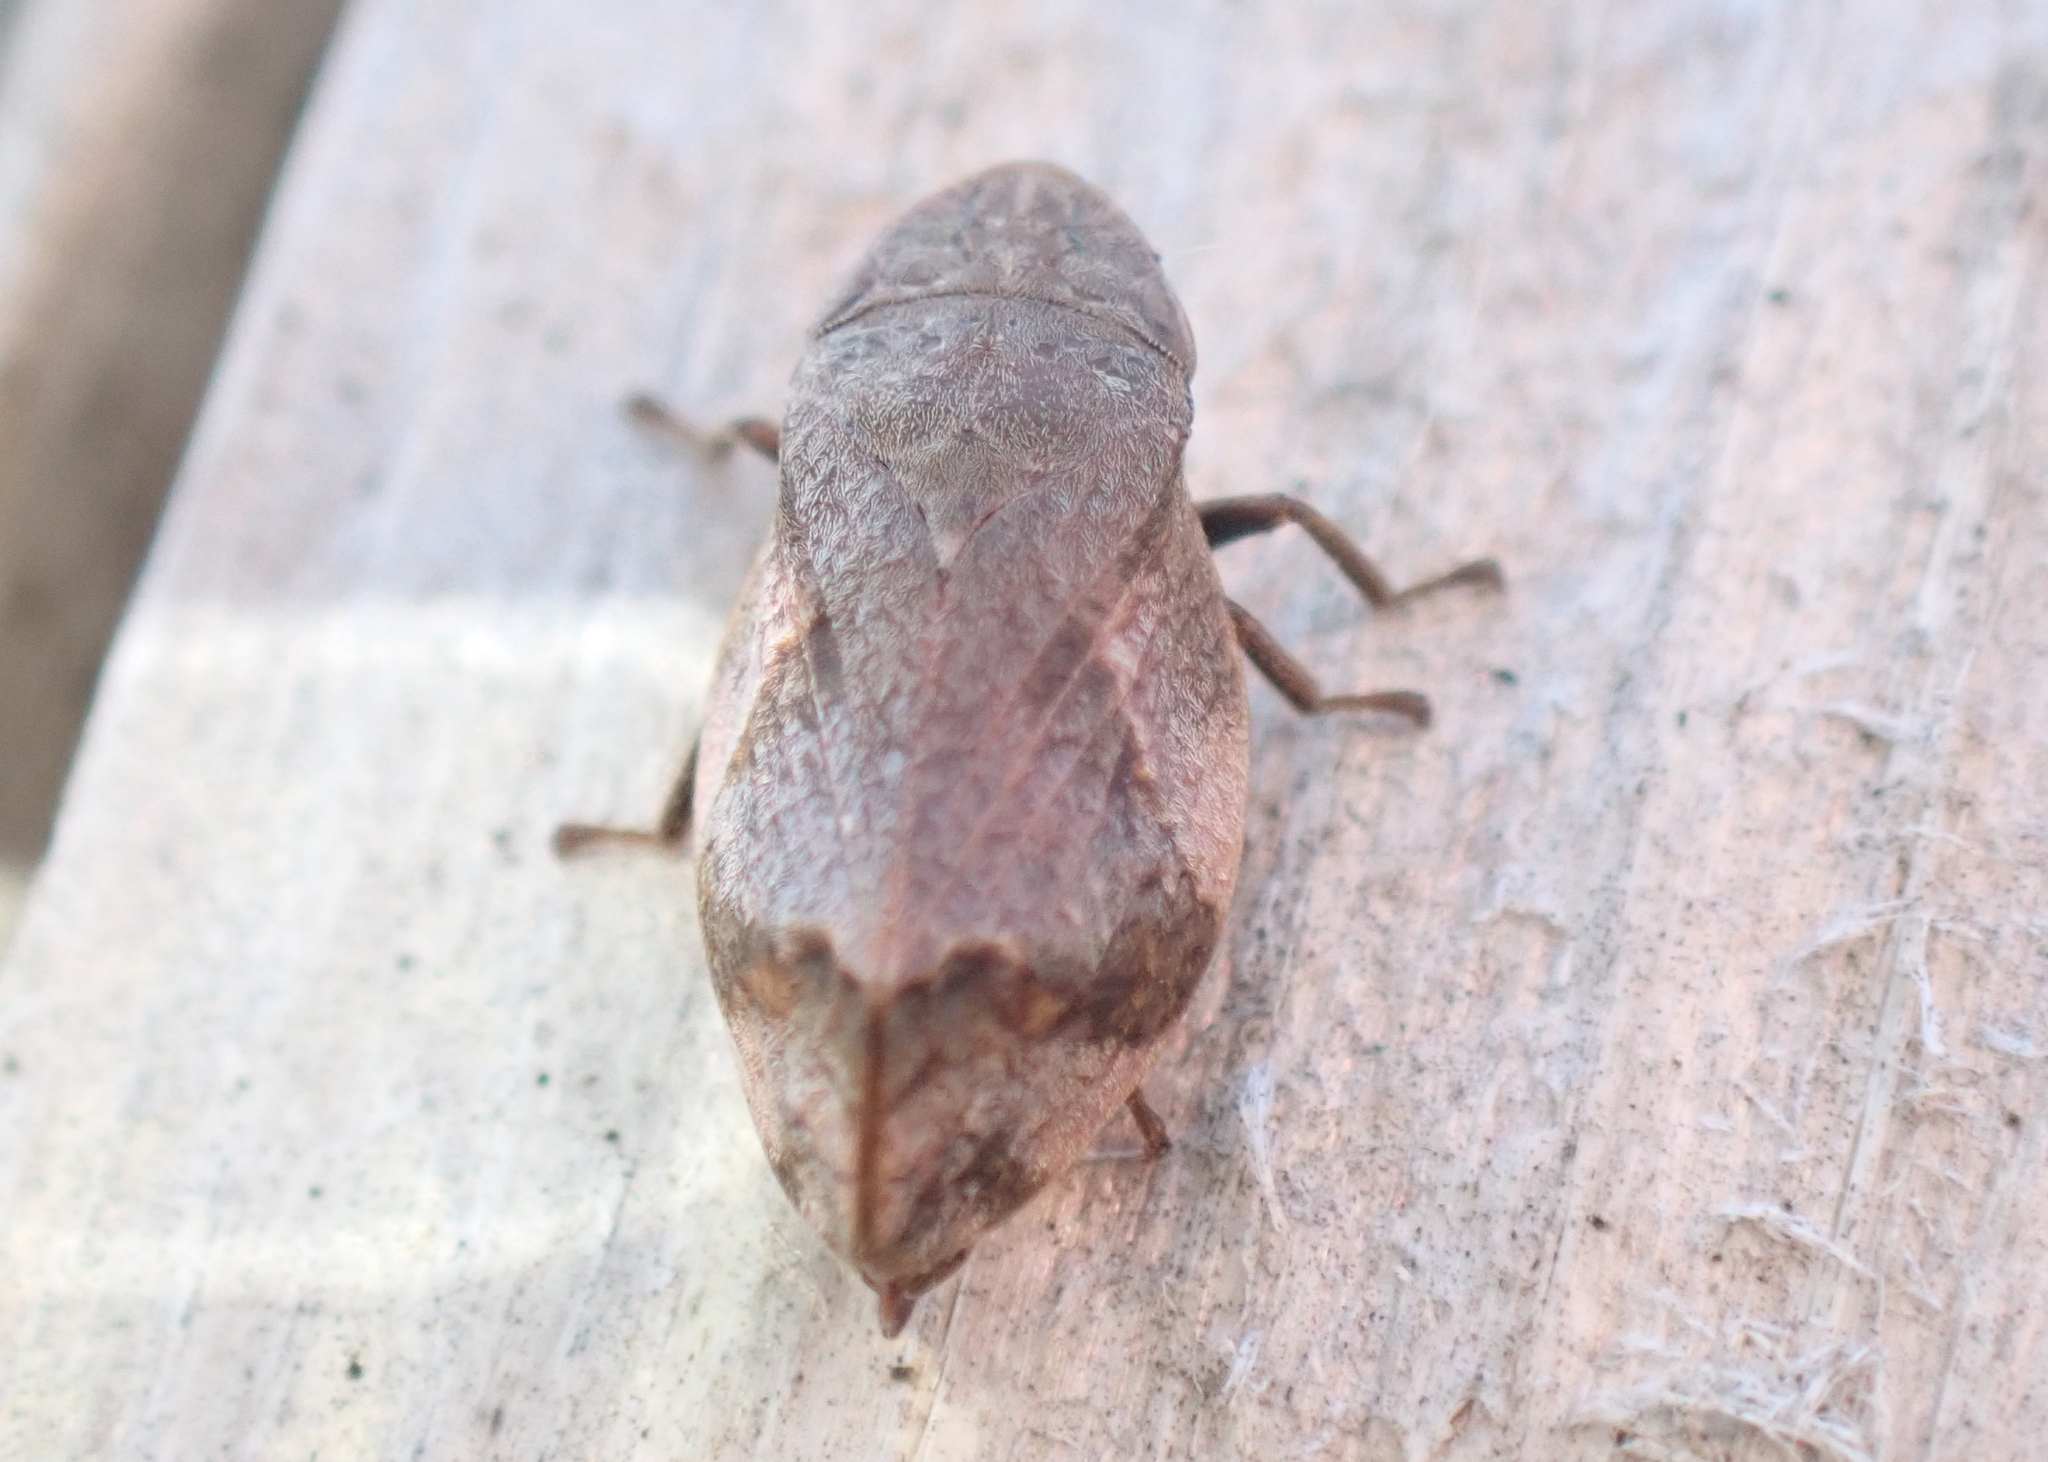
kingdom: Animalia
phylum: Arthropoda
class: Insecta
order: Hemiptera
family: Aphrophoridae
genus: Lepyronia
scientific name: Lepyronia quadrangularis
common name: Diamond-backed spittlebug
